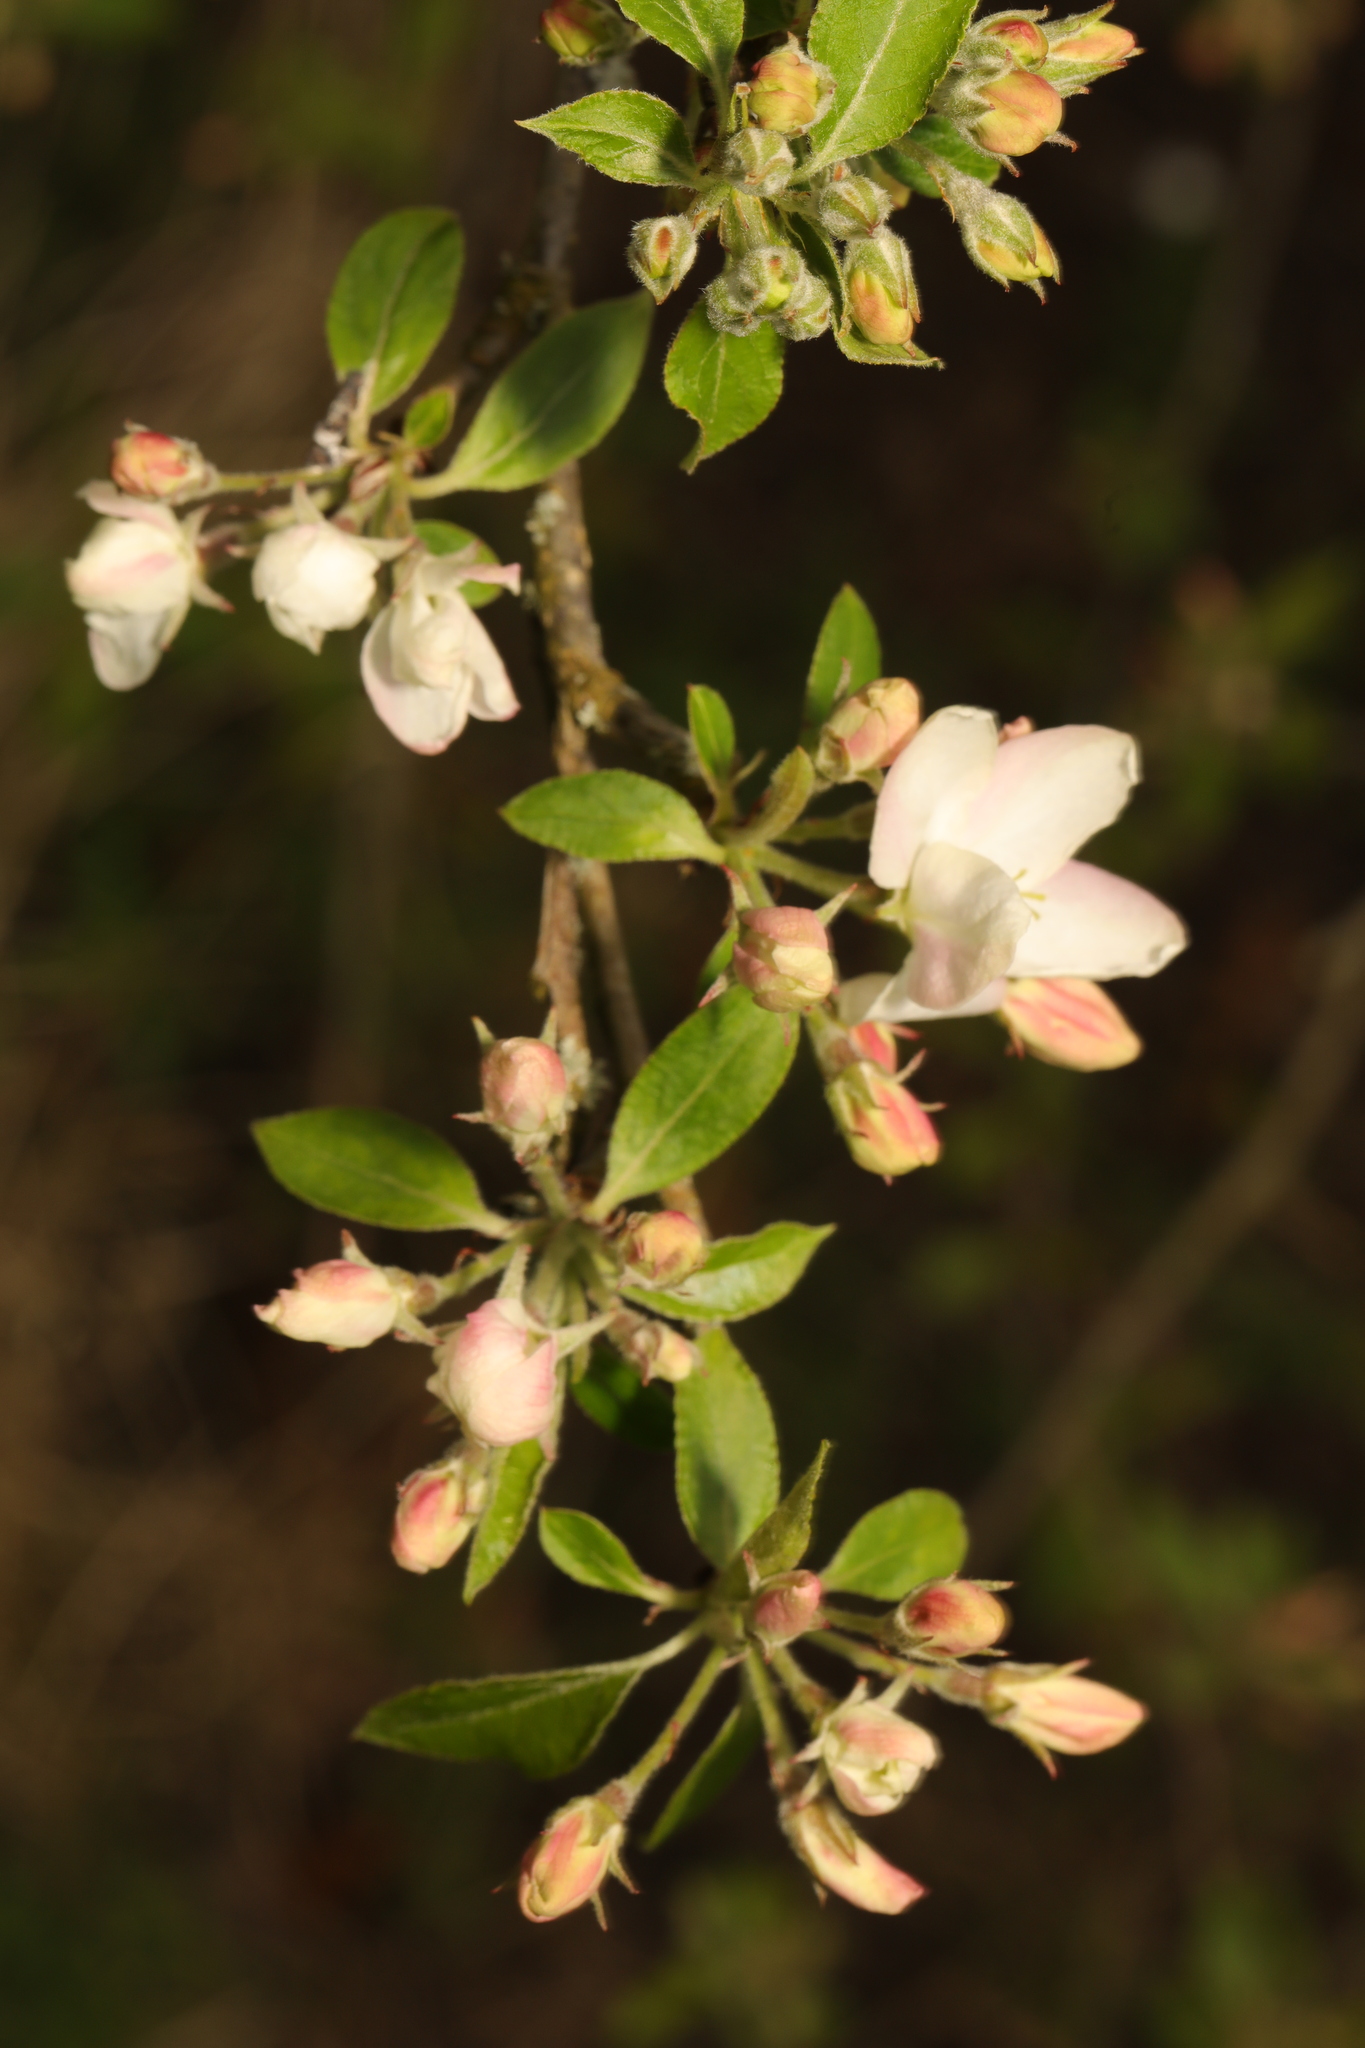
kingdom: Plantae
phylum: Tracheophyta
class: Magnoliopsida
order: Rosales
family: Rosaceae
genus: Malus
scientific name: Malus domestica
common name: Apple
